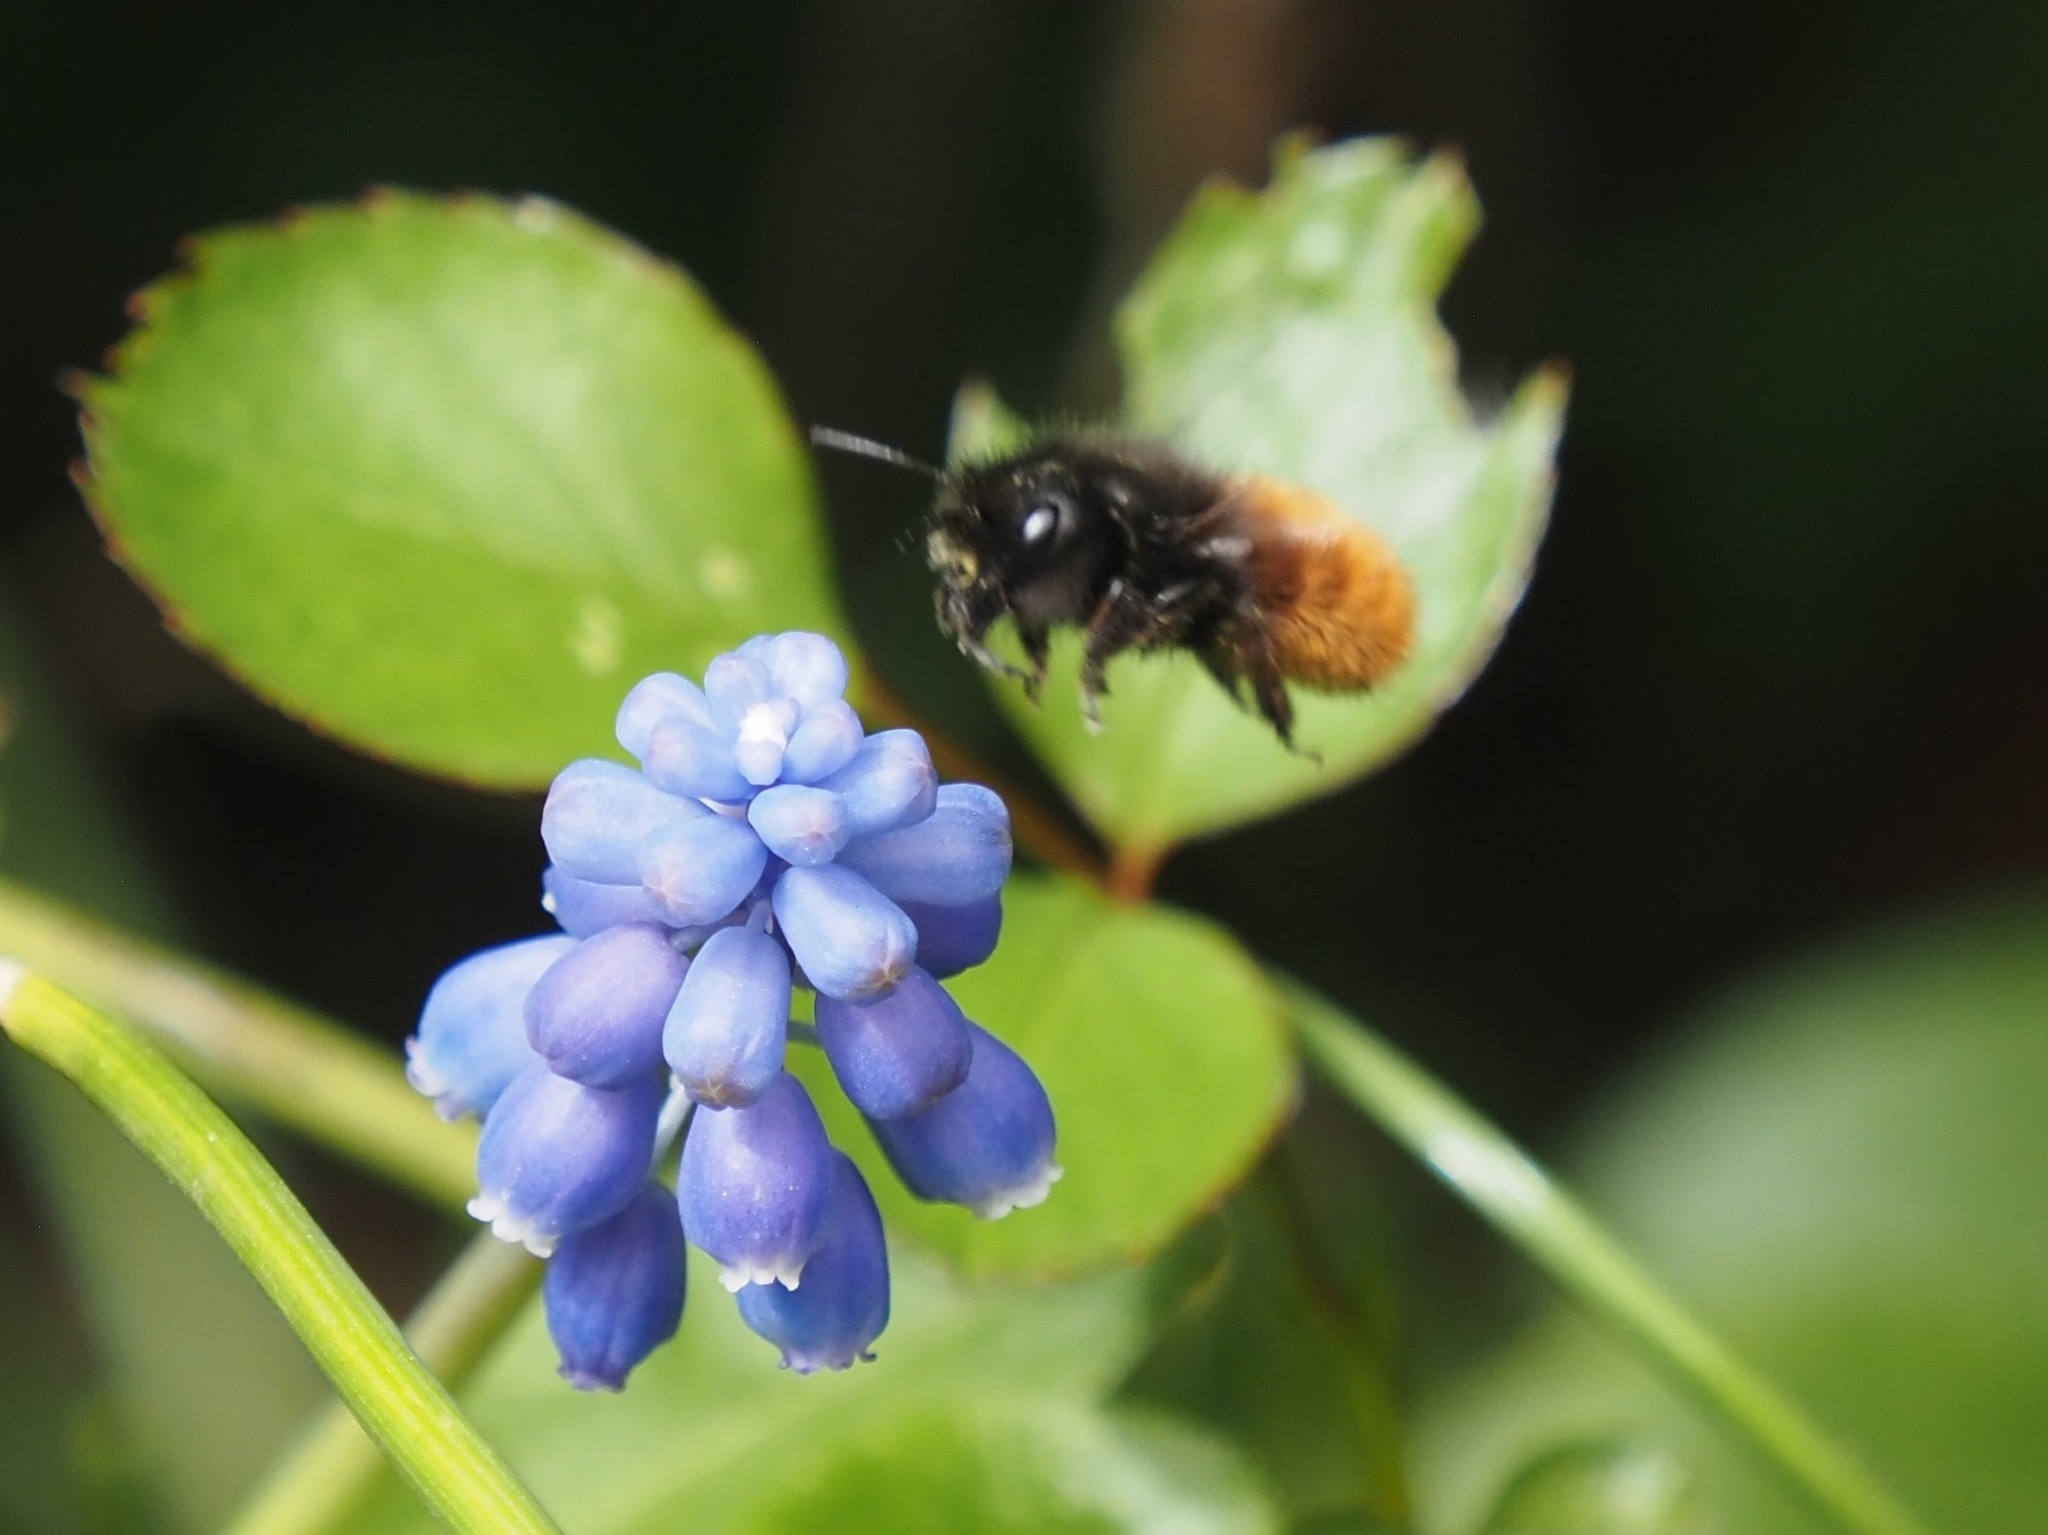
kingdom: Animalia
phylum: Arthropoda
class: Insecta
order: Hymenoptera
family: Megachilidae
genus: Osmia
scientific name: Osmia cornuta
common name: Mason bee
